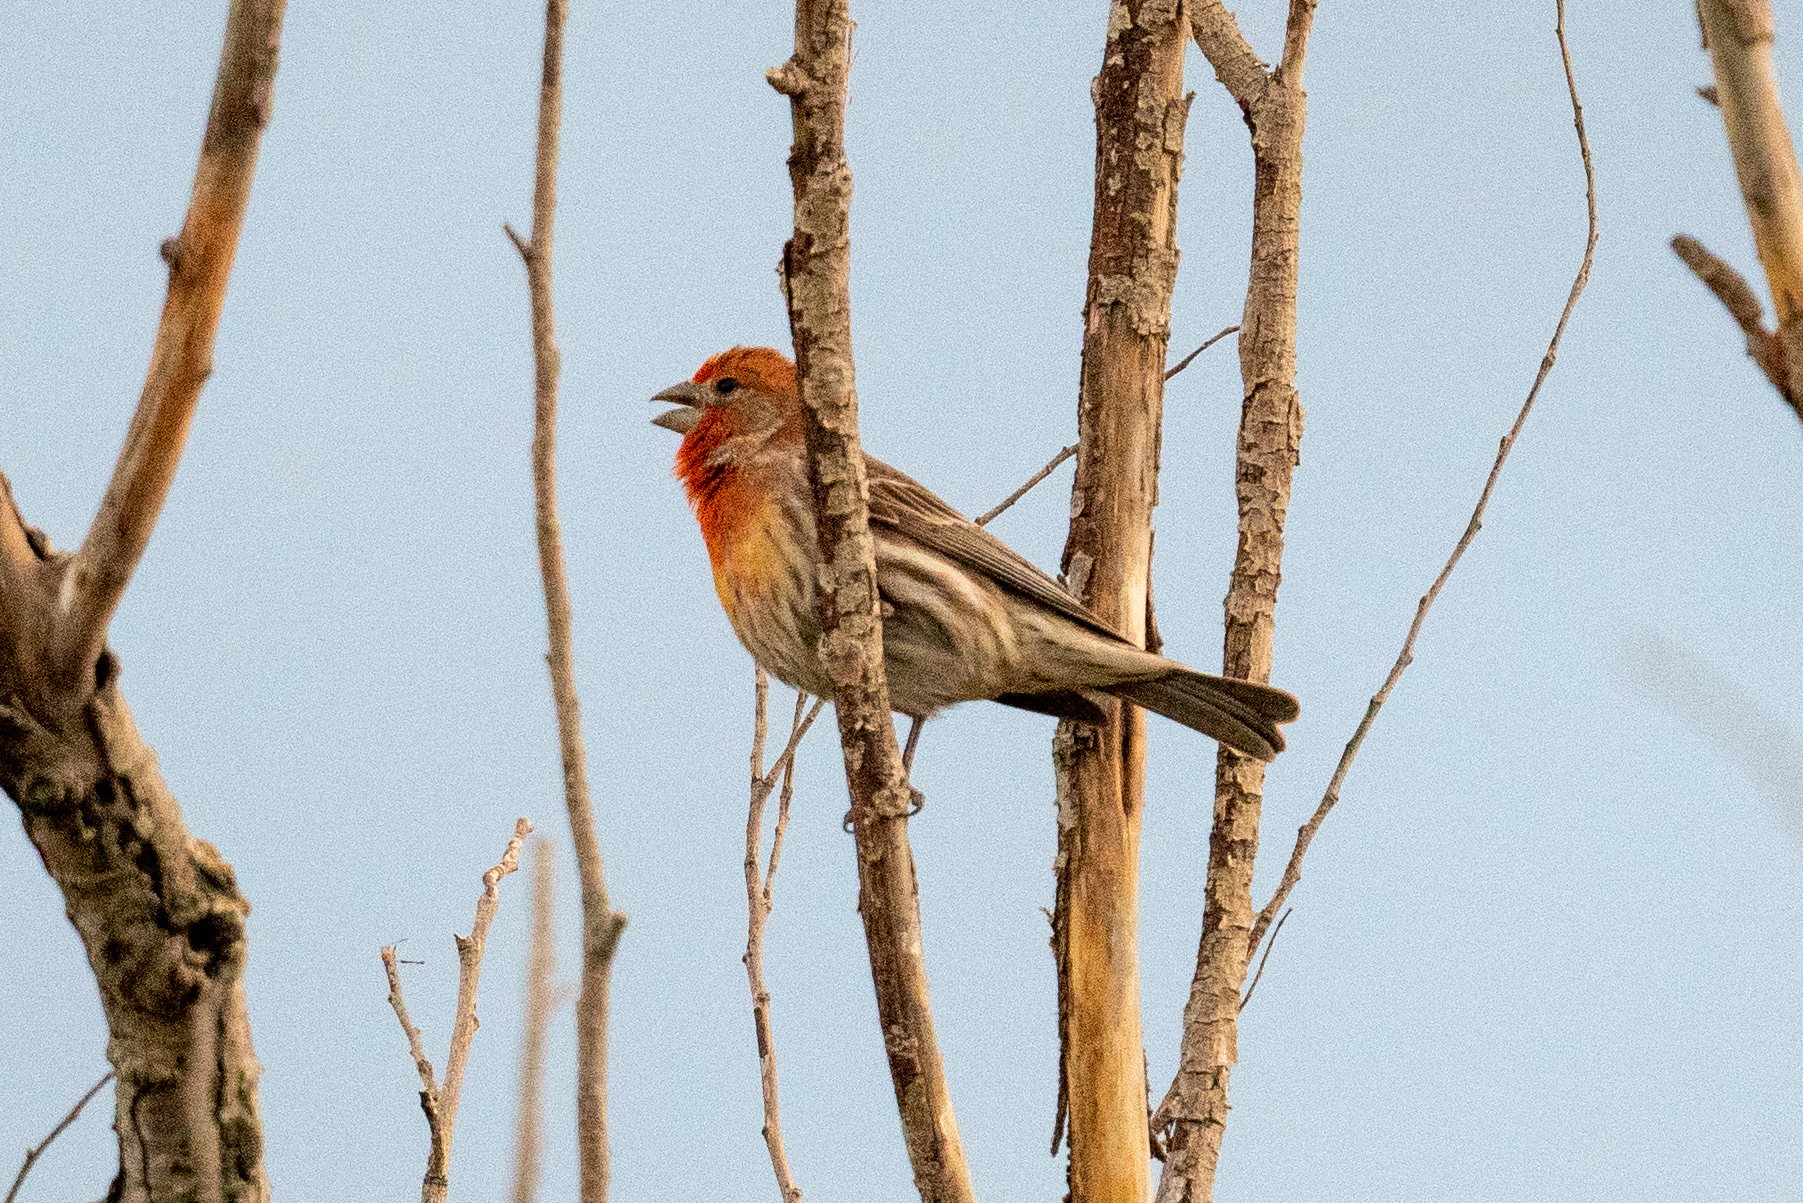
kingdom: Animalia
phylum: Chordata
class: Aves
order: Passeriformes
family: Fringillidae
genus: Haemorhous
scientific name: Haemorhous mexicanus
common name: House finch
